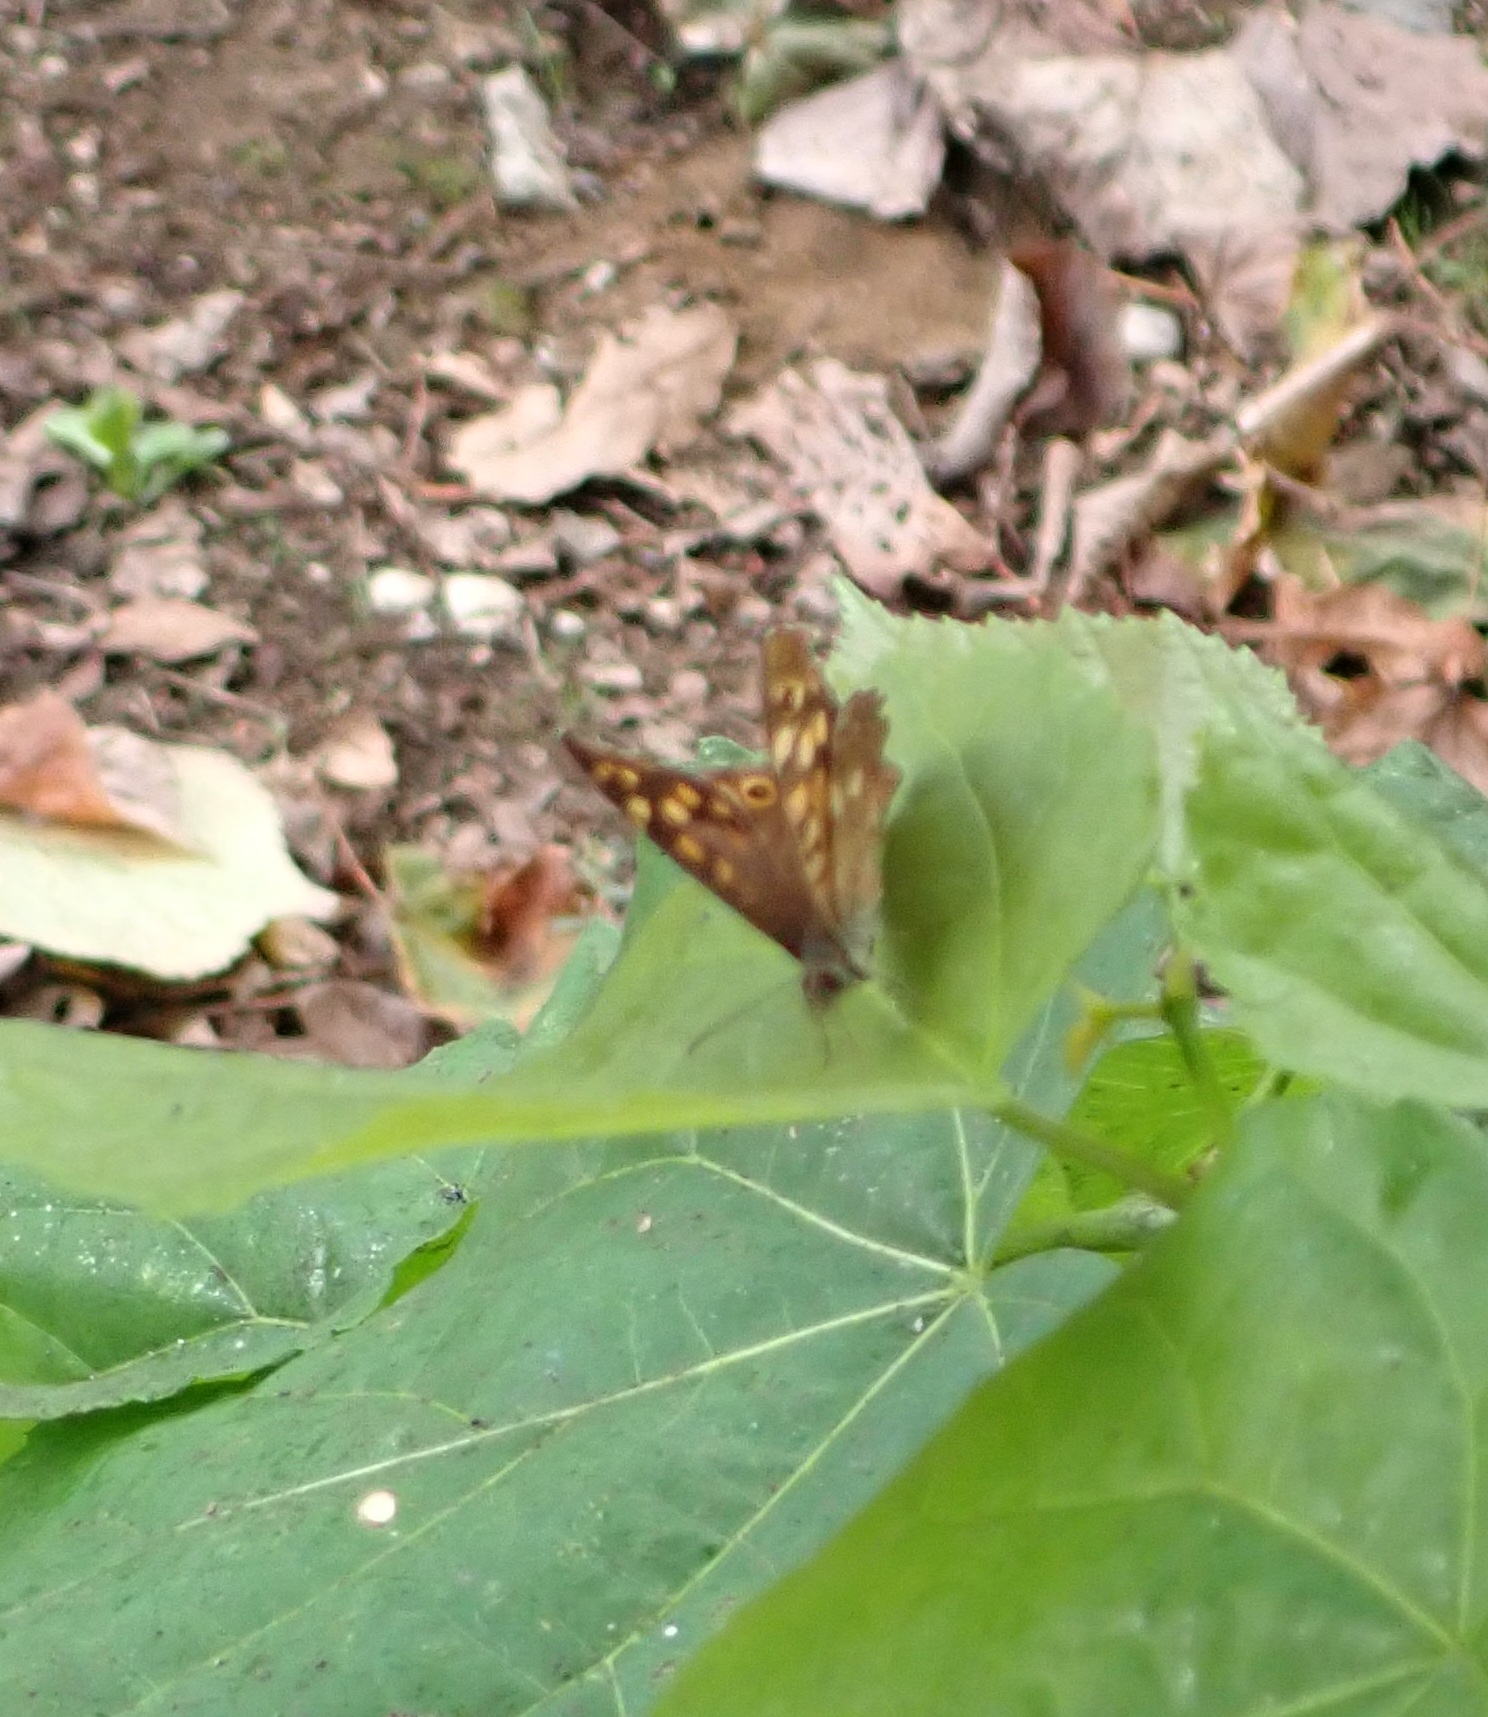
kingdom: Animalia
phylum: Arthropoda
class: Insecta
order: Lepidoptera
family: Nymphalidae
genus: Pararge
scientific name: Pararge aegeria
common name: Speckled wood
